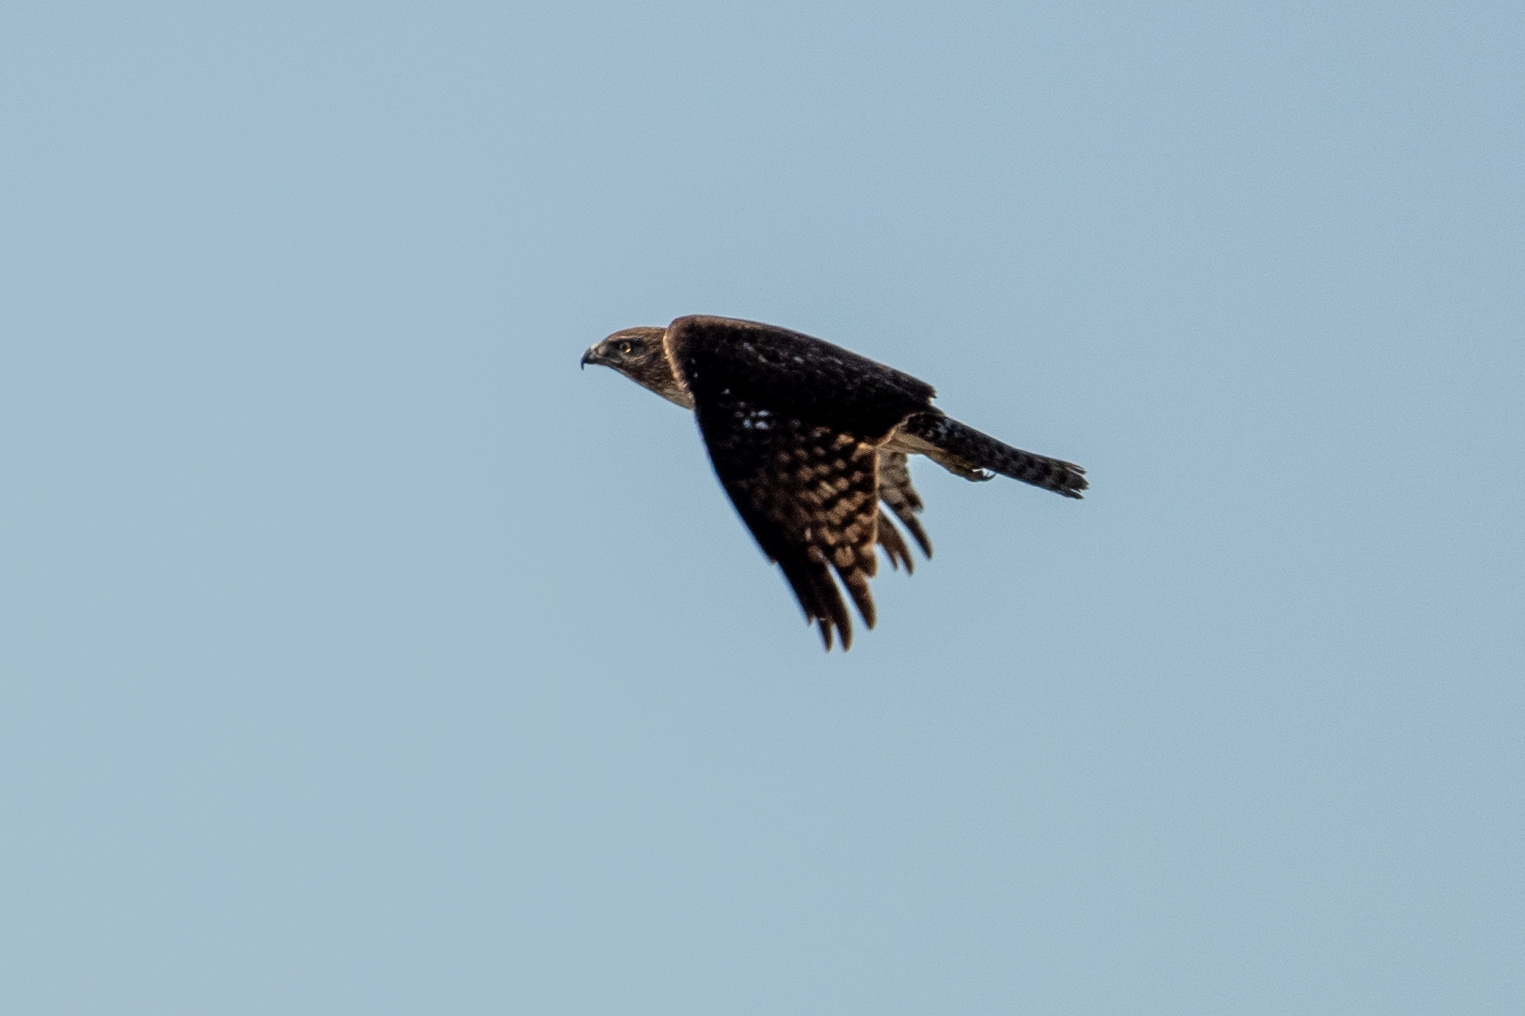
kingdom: Animalia
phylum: Chordata
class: Aves
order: Accipitriformes
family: Accipitridae
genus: Buteo
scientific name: Buteo jamaicensis
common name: Red-tailed hawk
